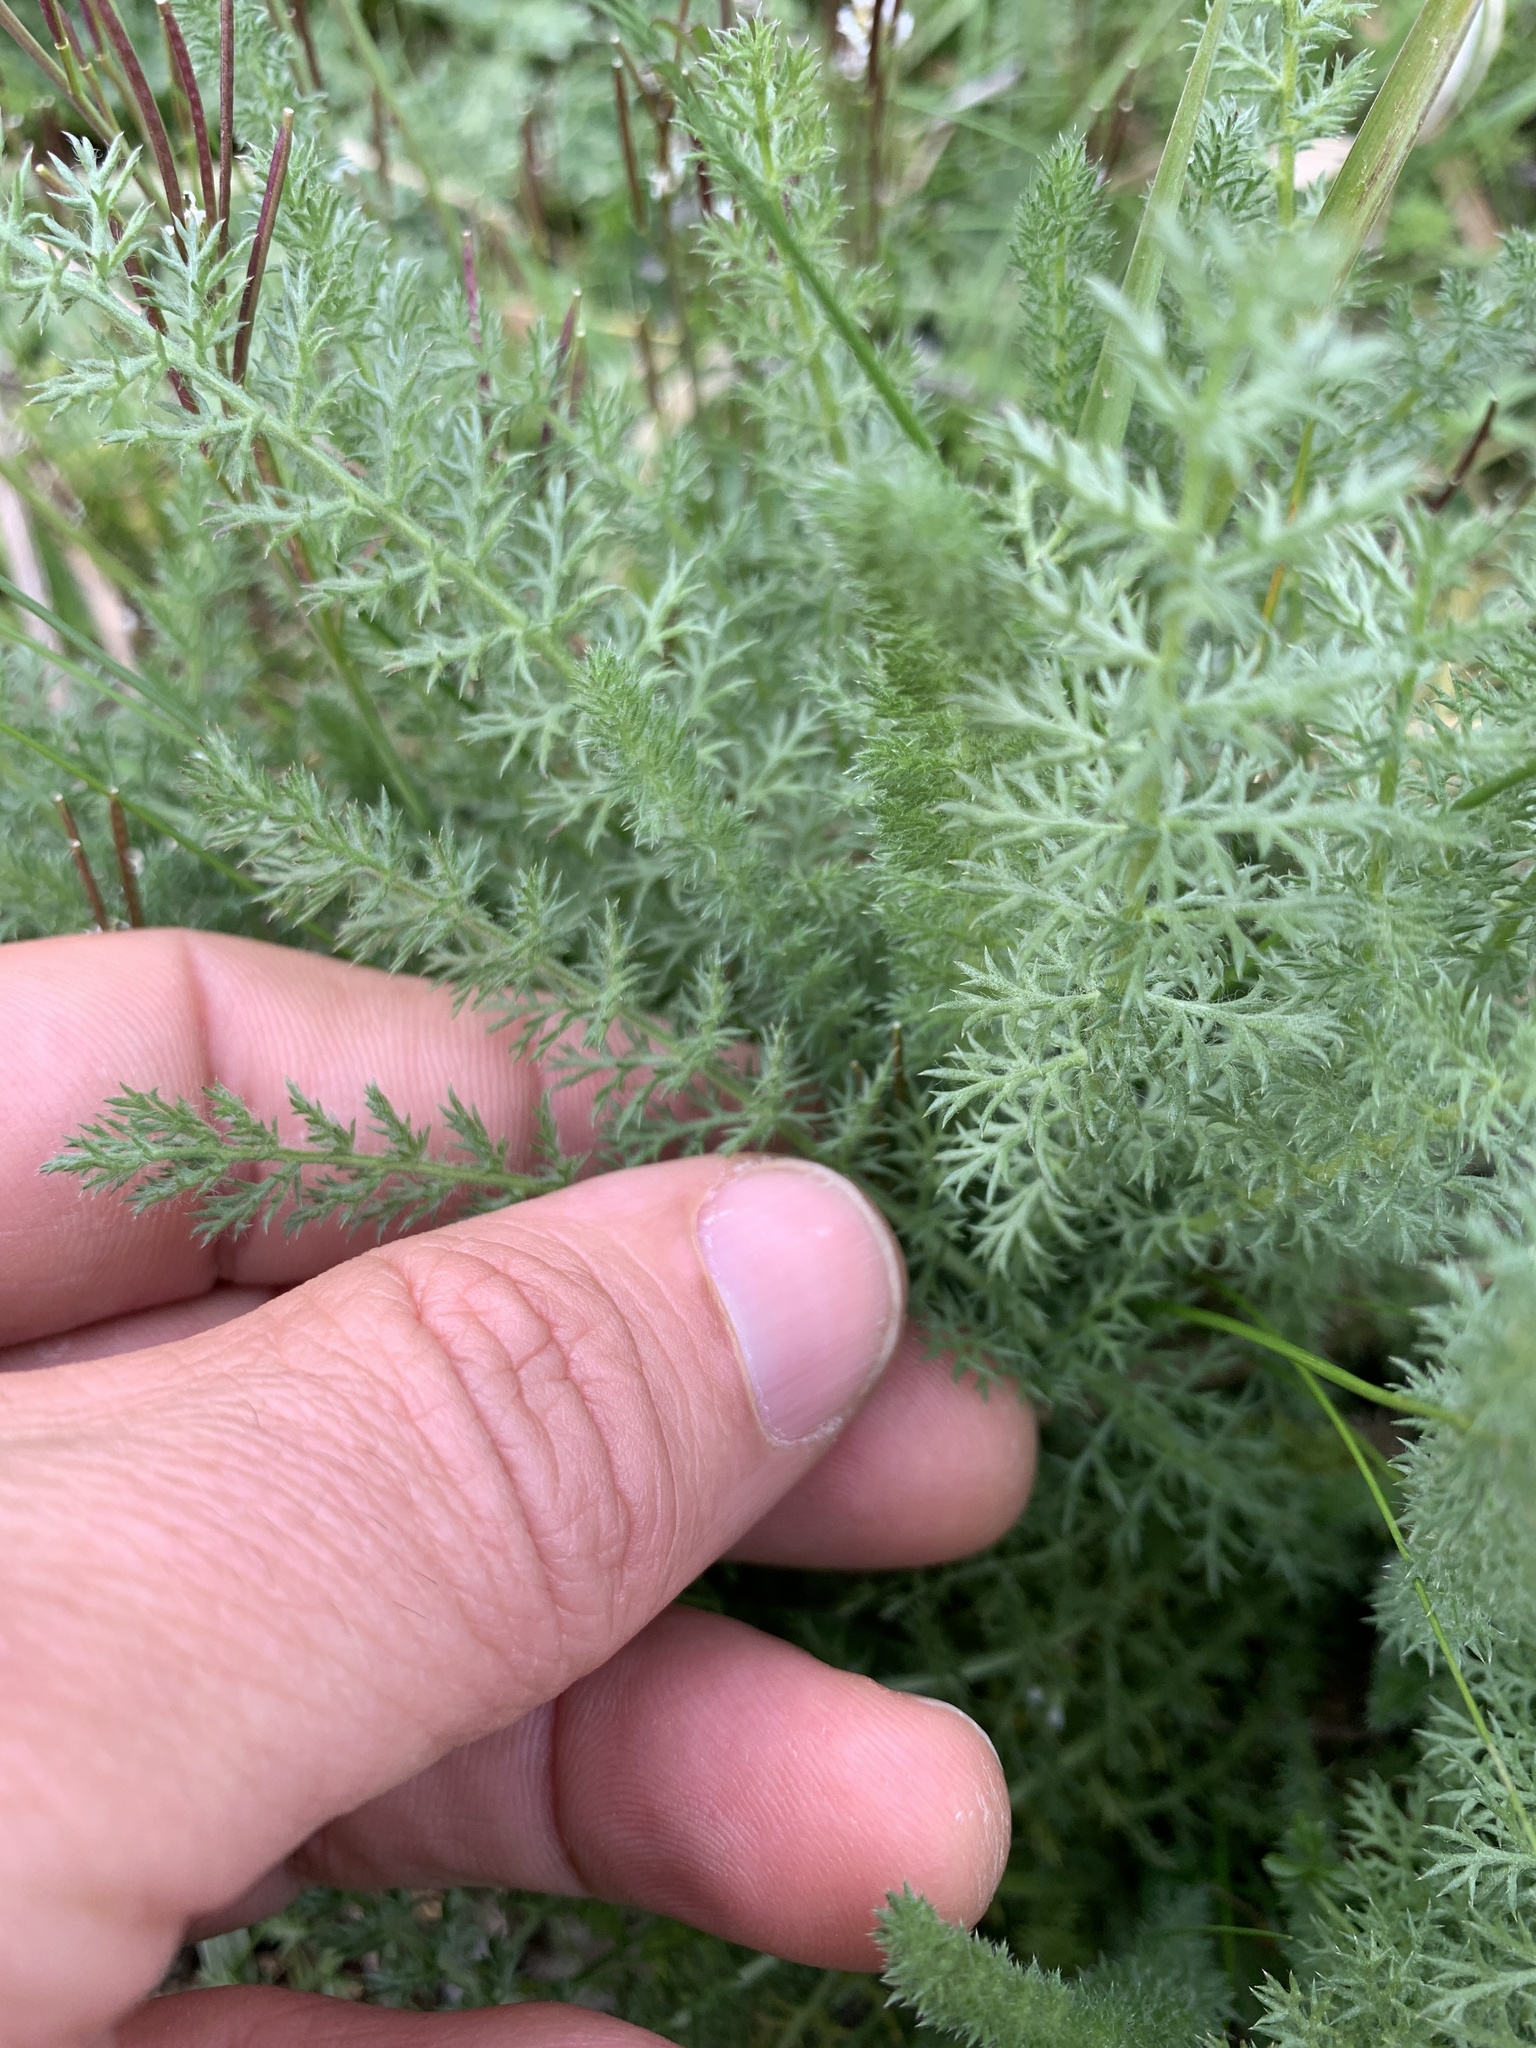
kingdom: Plantae
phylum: Tracheophyta
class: Magnoliopsida
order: Asterales
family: Asteraceae
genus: Achillea
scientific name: Achillea millefolium
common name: Yarrow
